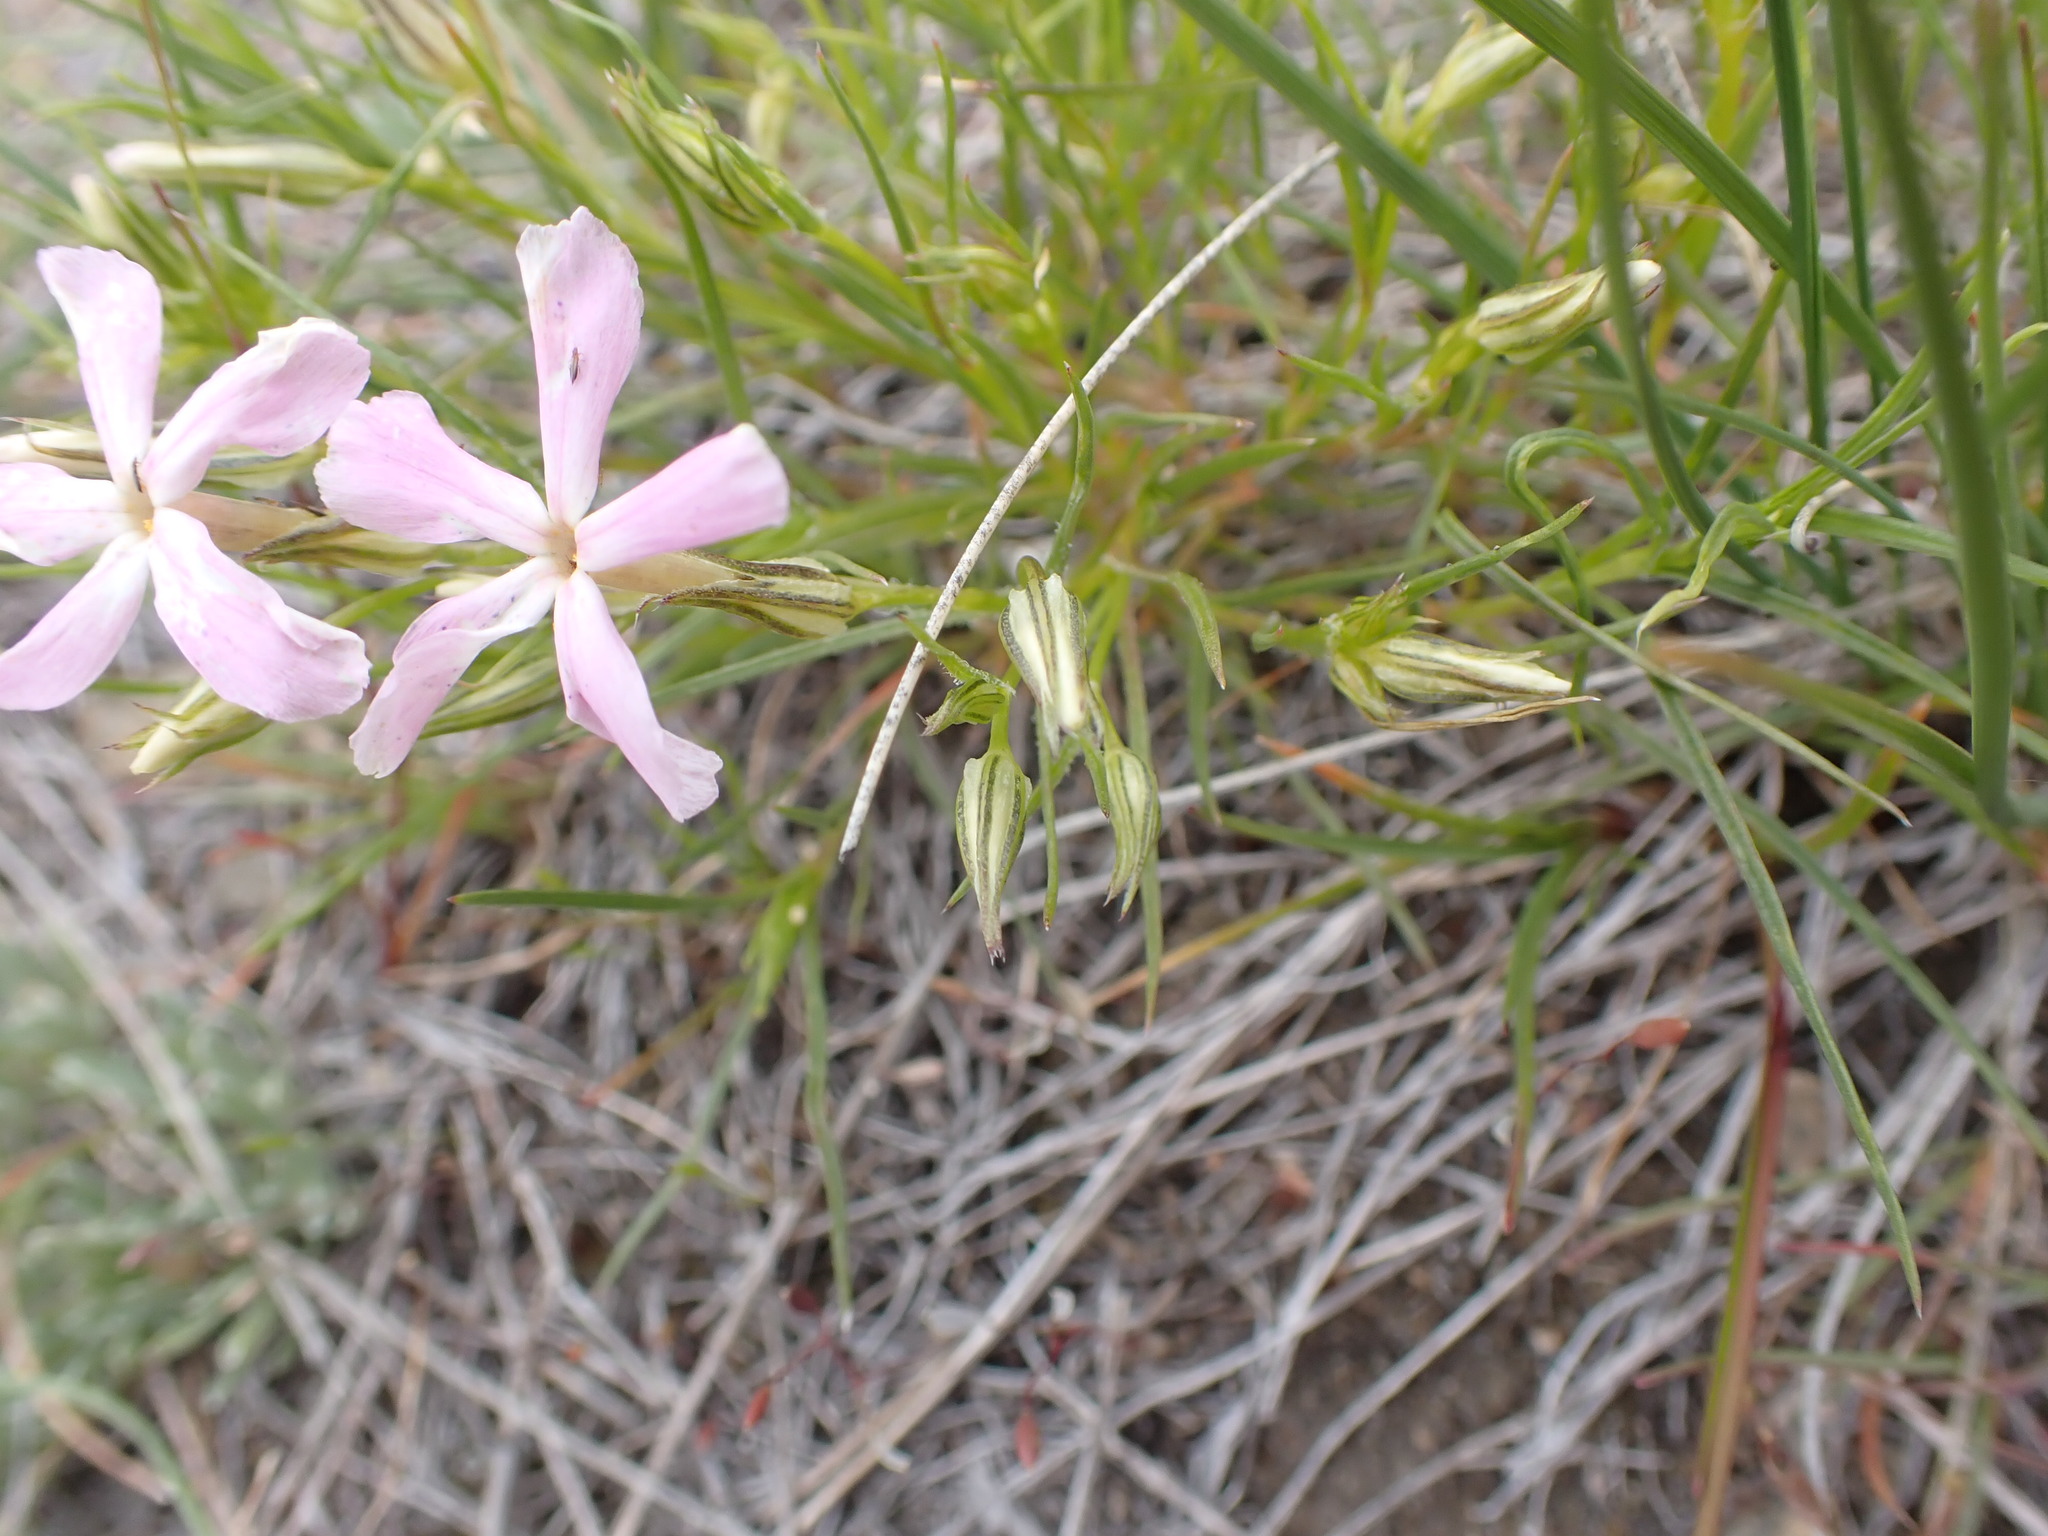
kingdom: Plantae
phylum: Tracheophyta
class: Magnoliopsida
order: Ericales
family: Polemoniaceae
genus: Phlox
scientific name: Phlox longifolia
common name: Longleaf phlox
